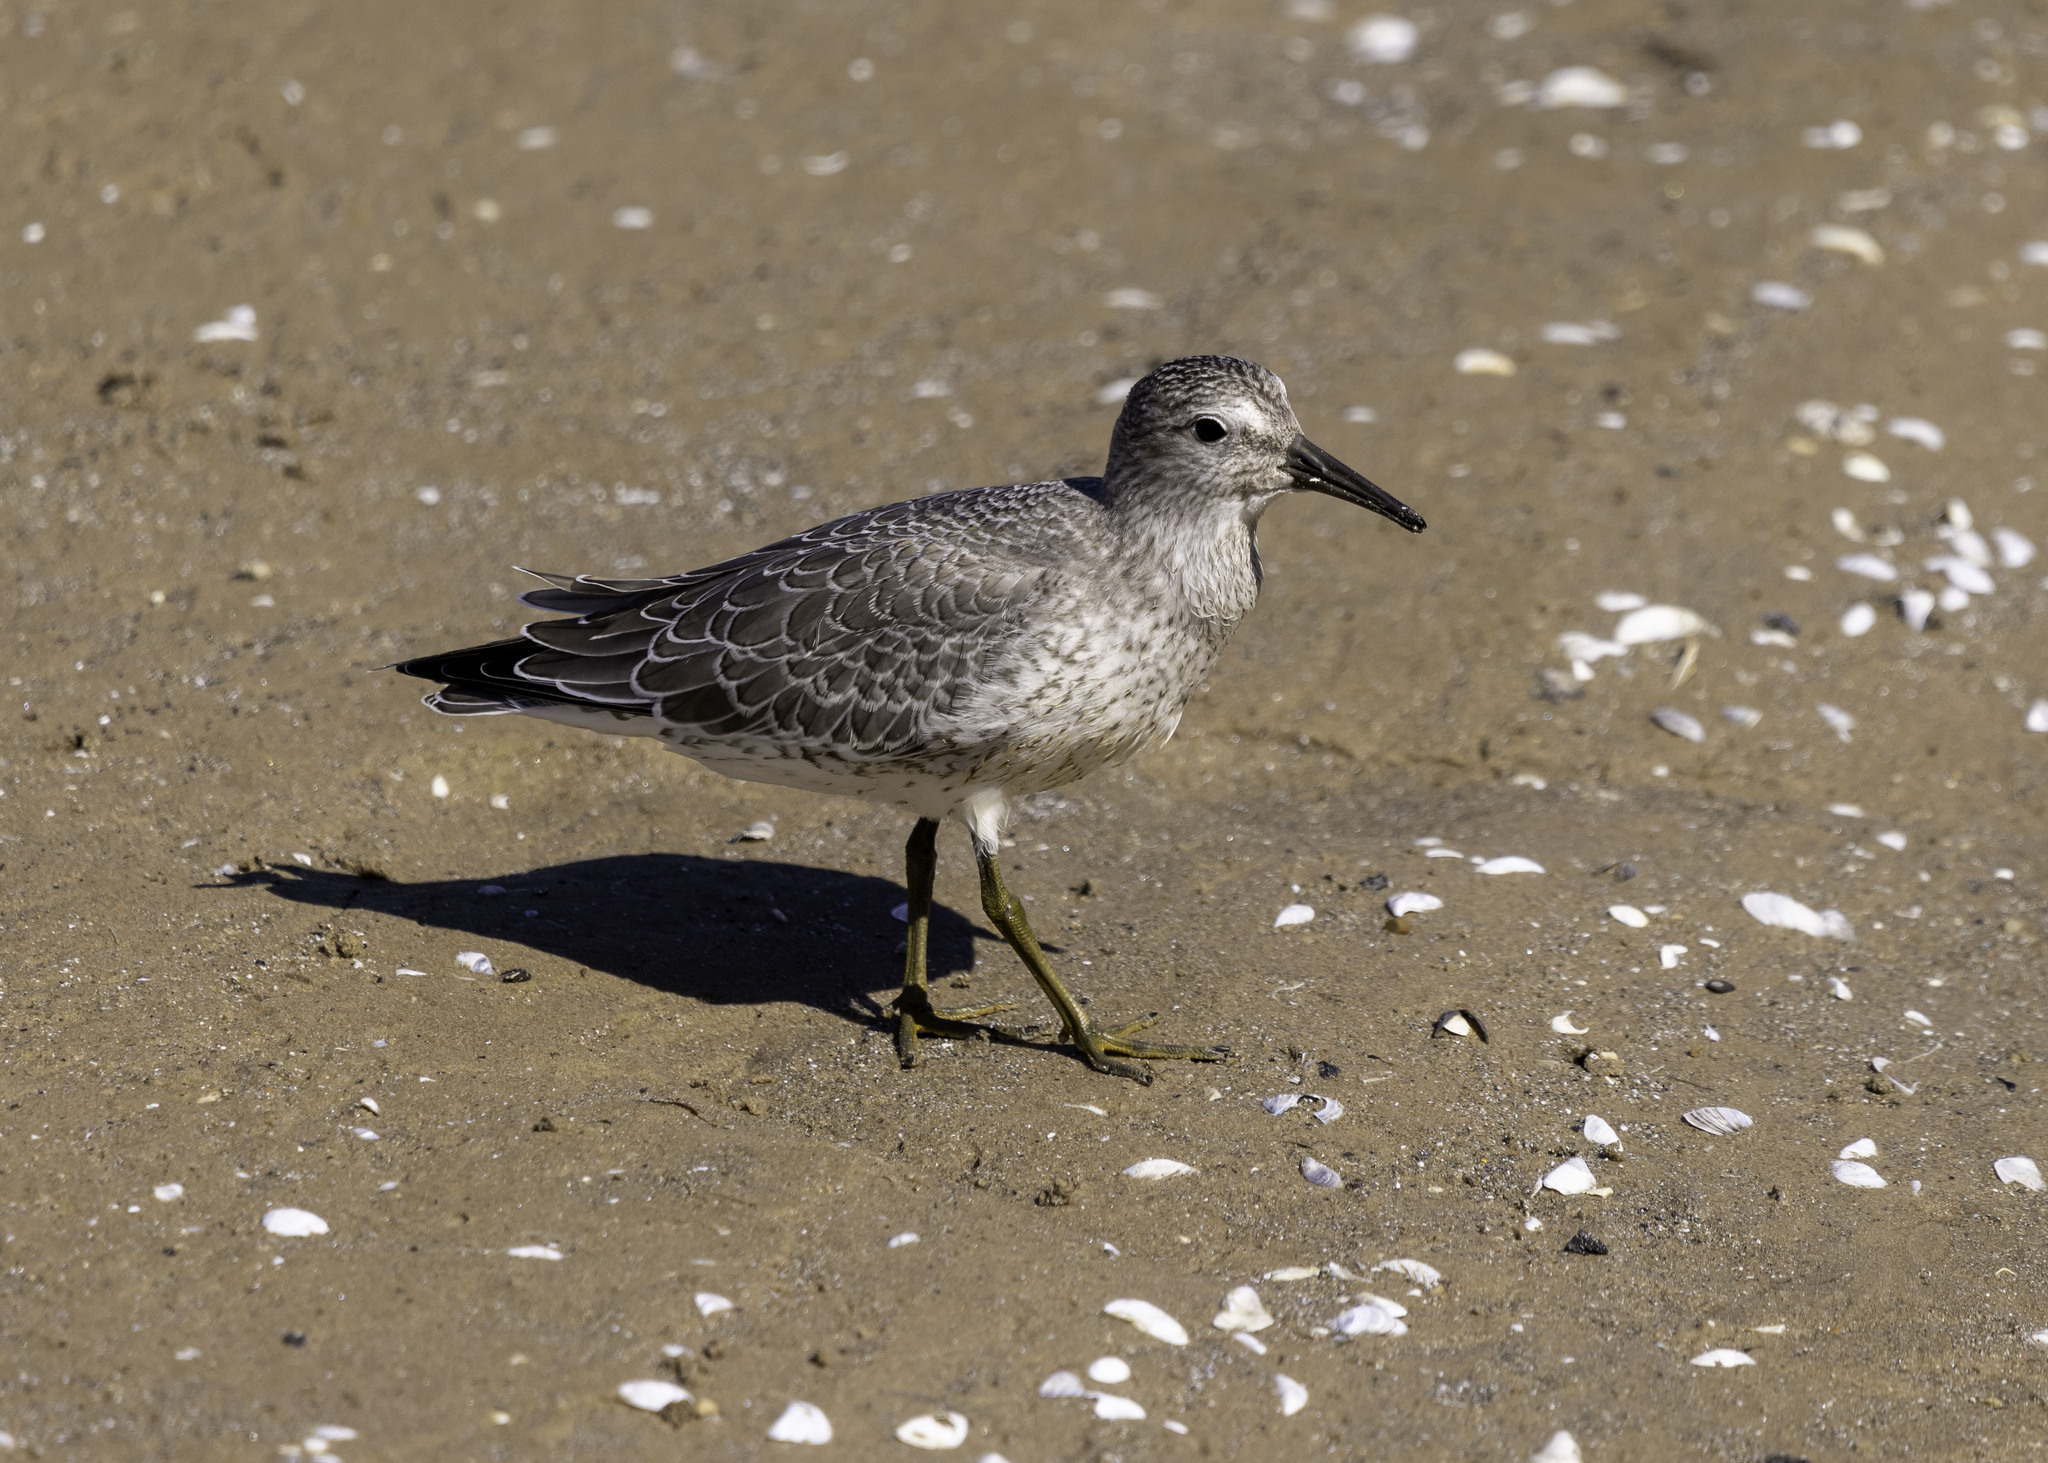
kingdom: Animalia
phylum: Chordata
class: Aves
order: Charadriiformes
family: Scolopacidae
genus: Calidris
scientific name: Calidris canutus
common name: Red knot
